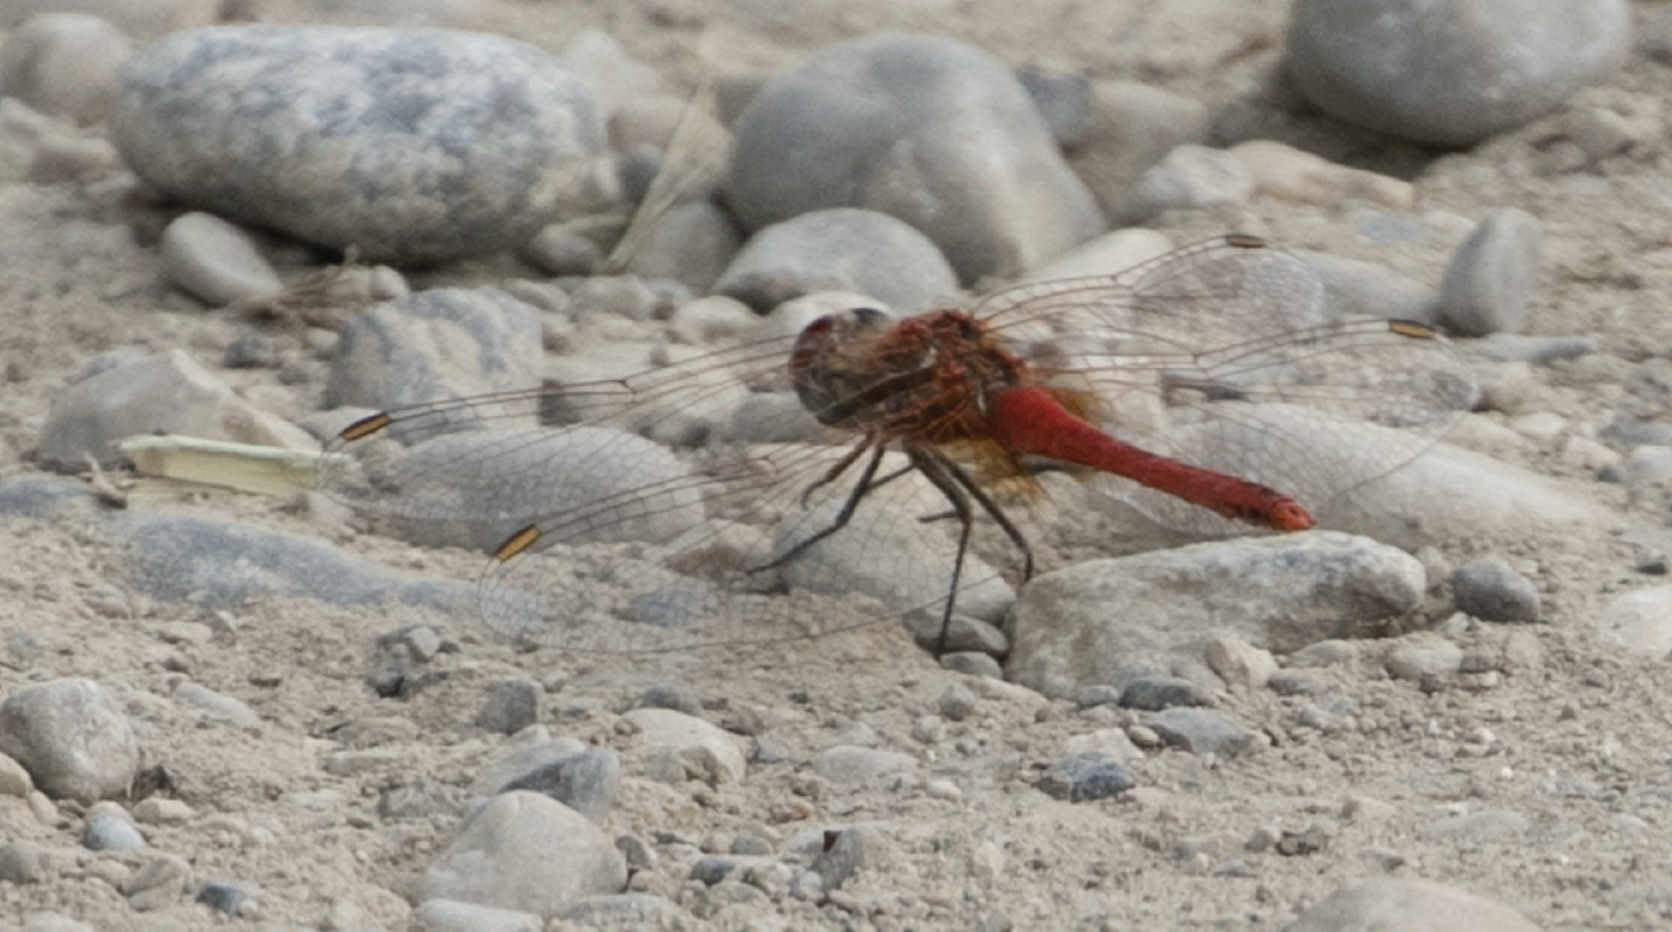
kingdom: Animalia
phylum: Arthropoda
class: Insecta
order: Odonata
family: Libellulidae
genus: Sympetrum
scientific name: Sympetrum fonscolombii
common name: Red-veined darter
